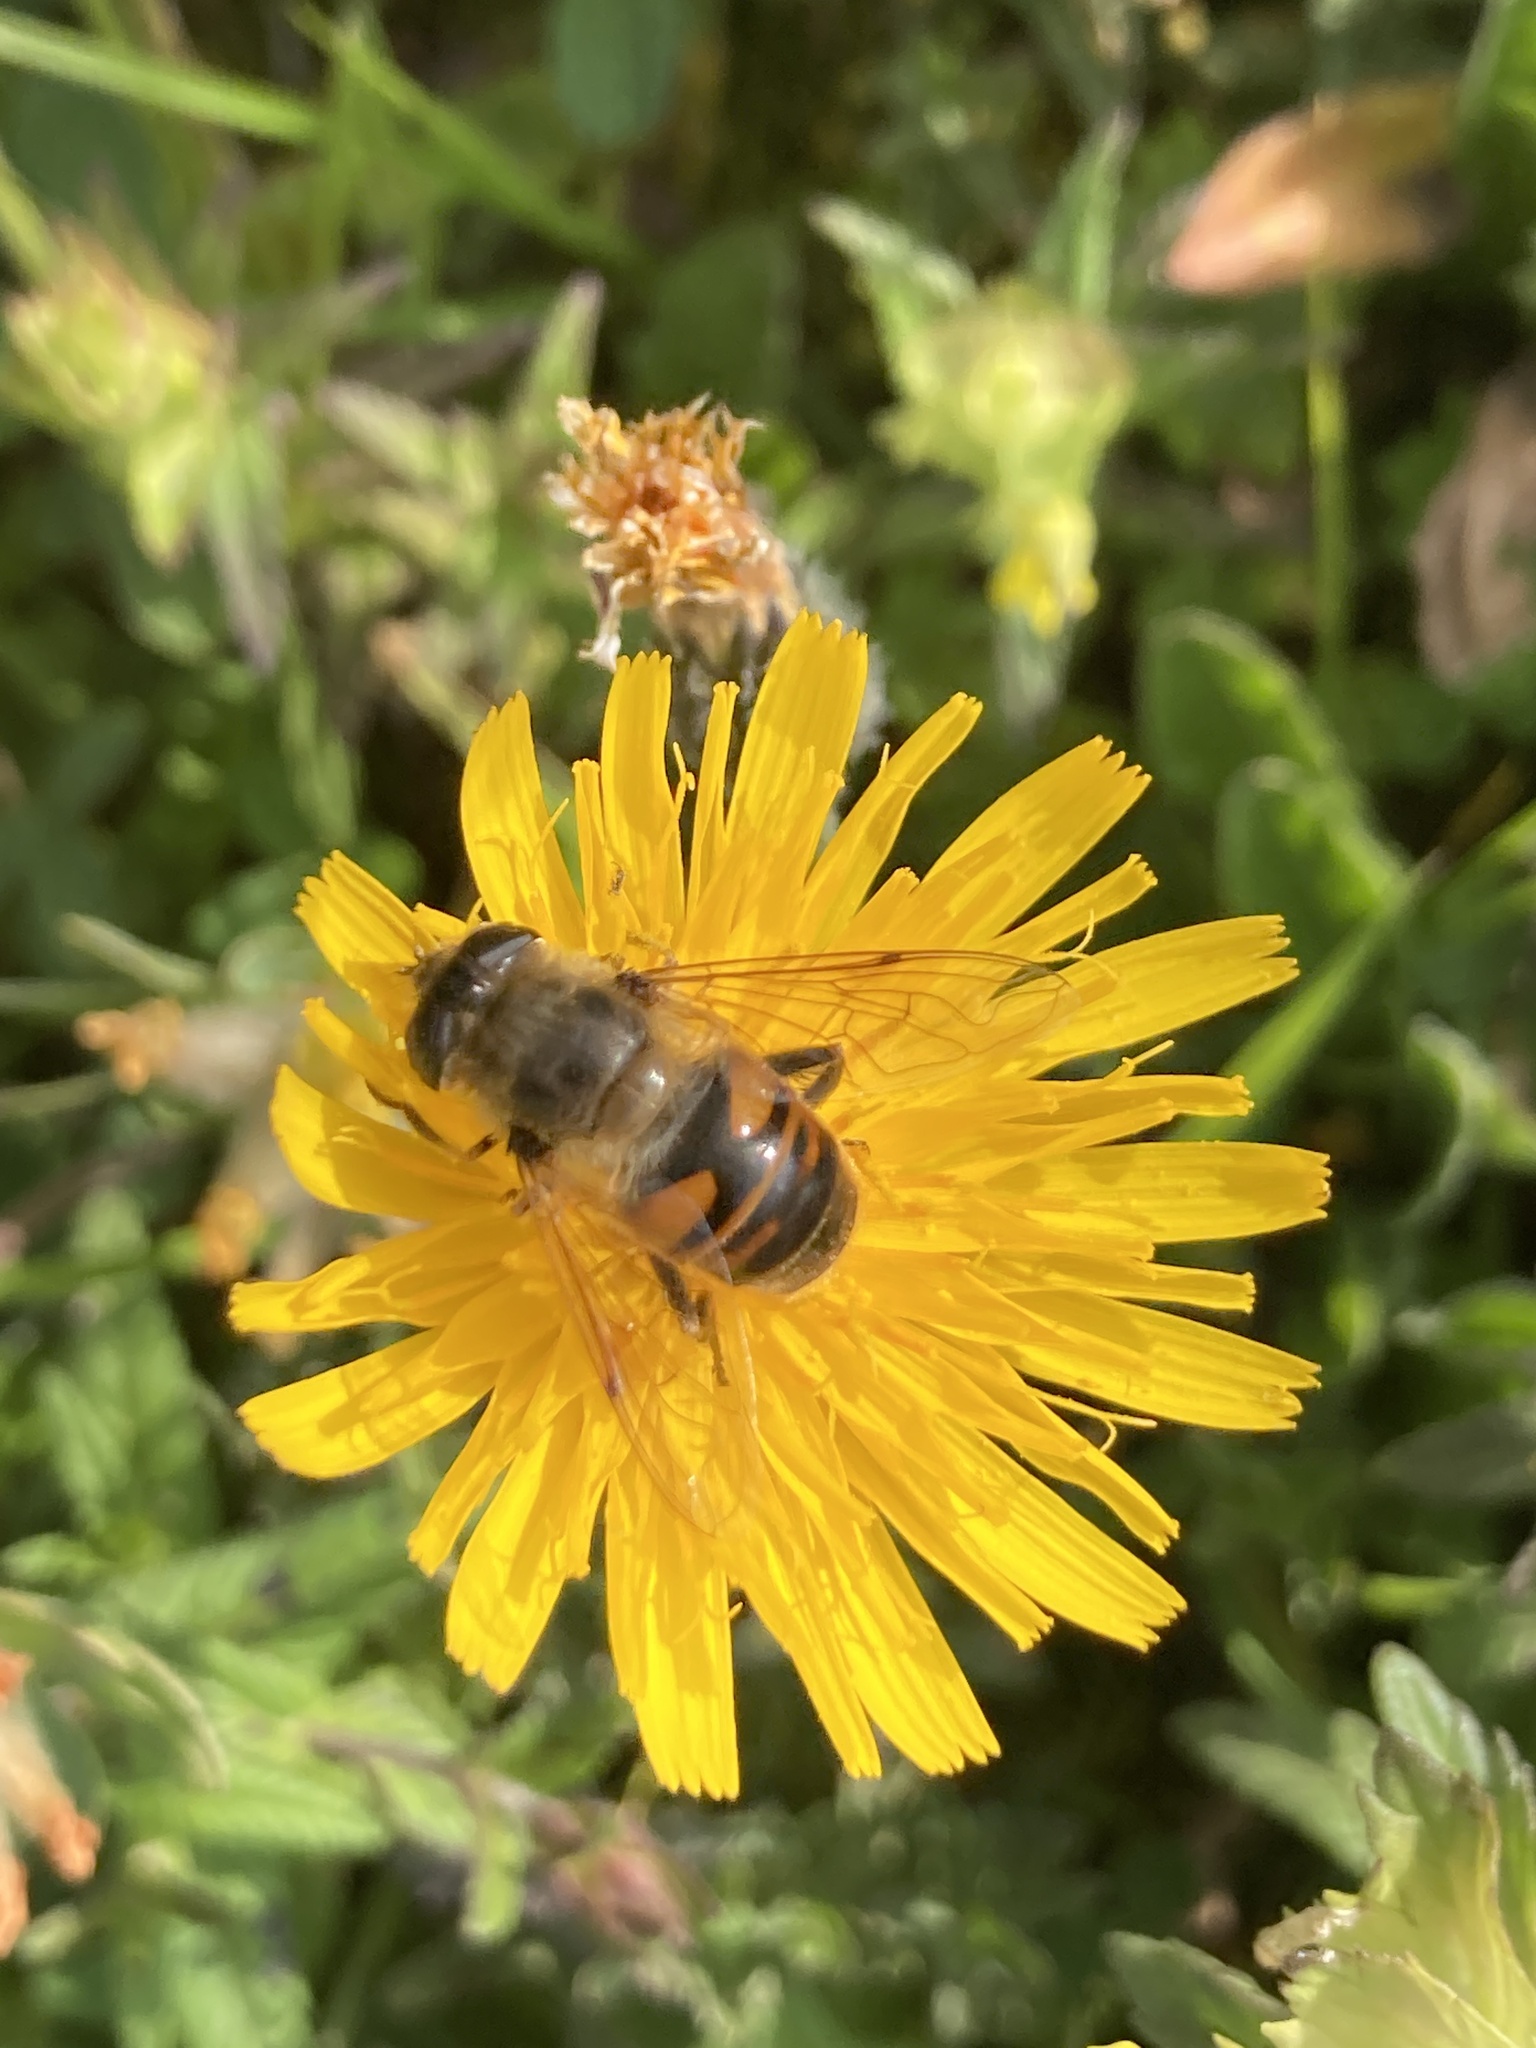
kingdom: Animalia
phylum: Arthropoda
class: Insecta
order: Diptera
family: Syrphidae
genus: Eristalis
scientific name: Eristalis tenax
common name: Drone fly
